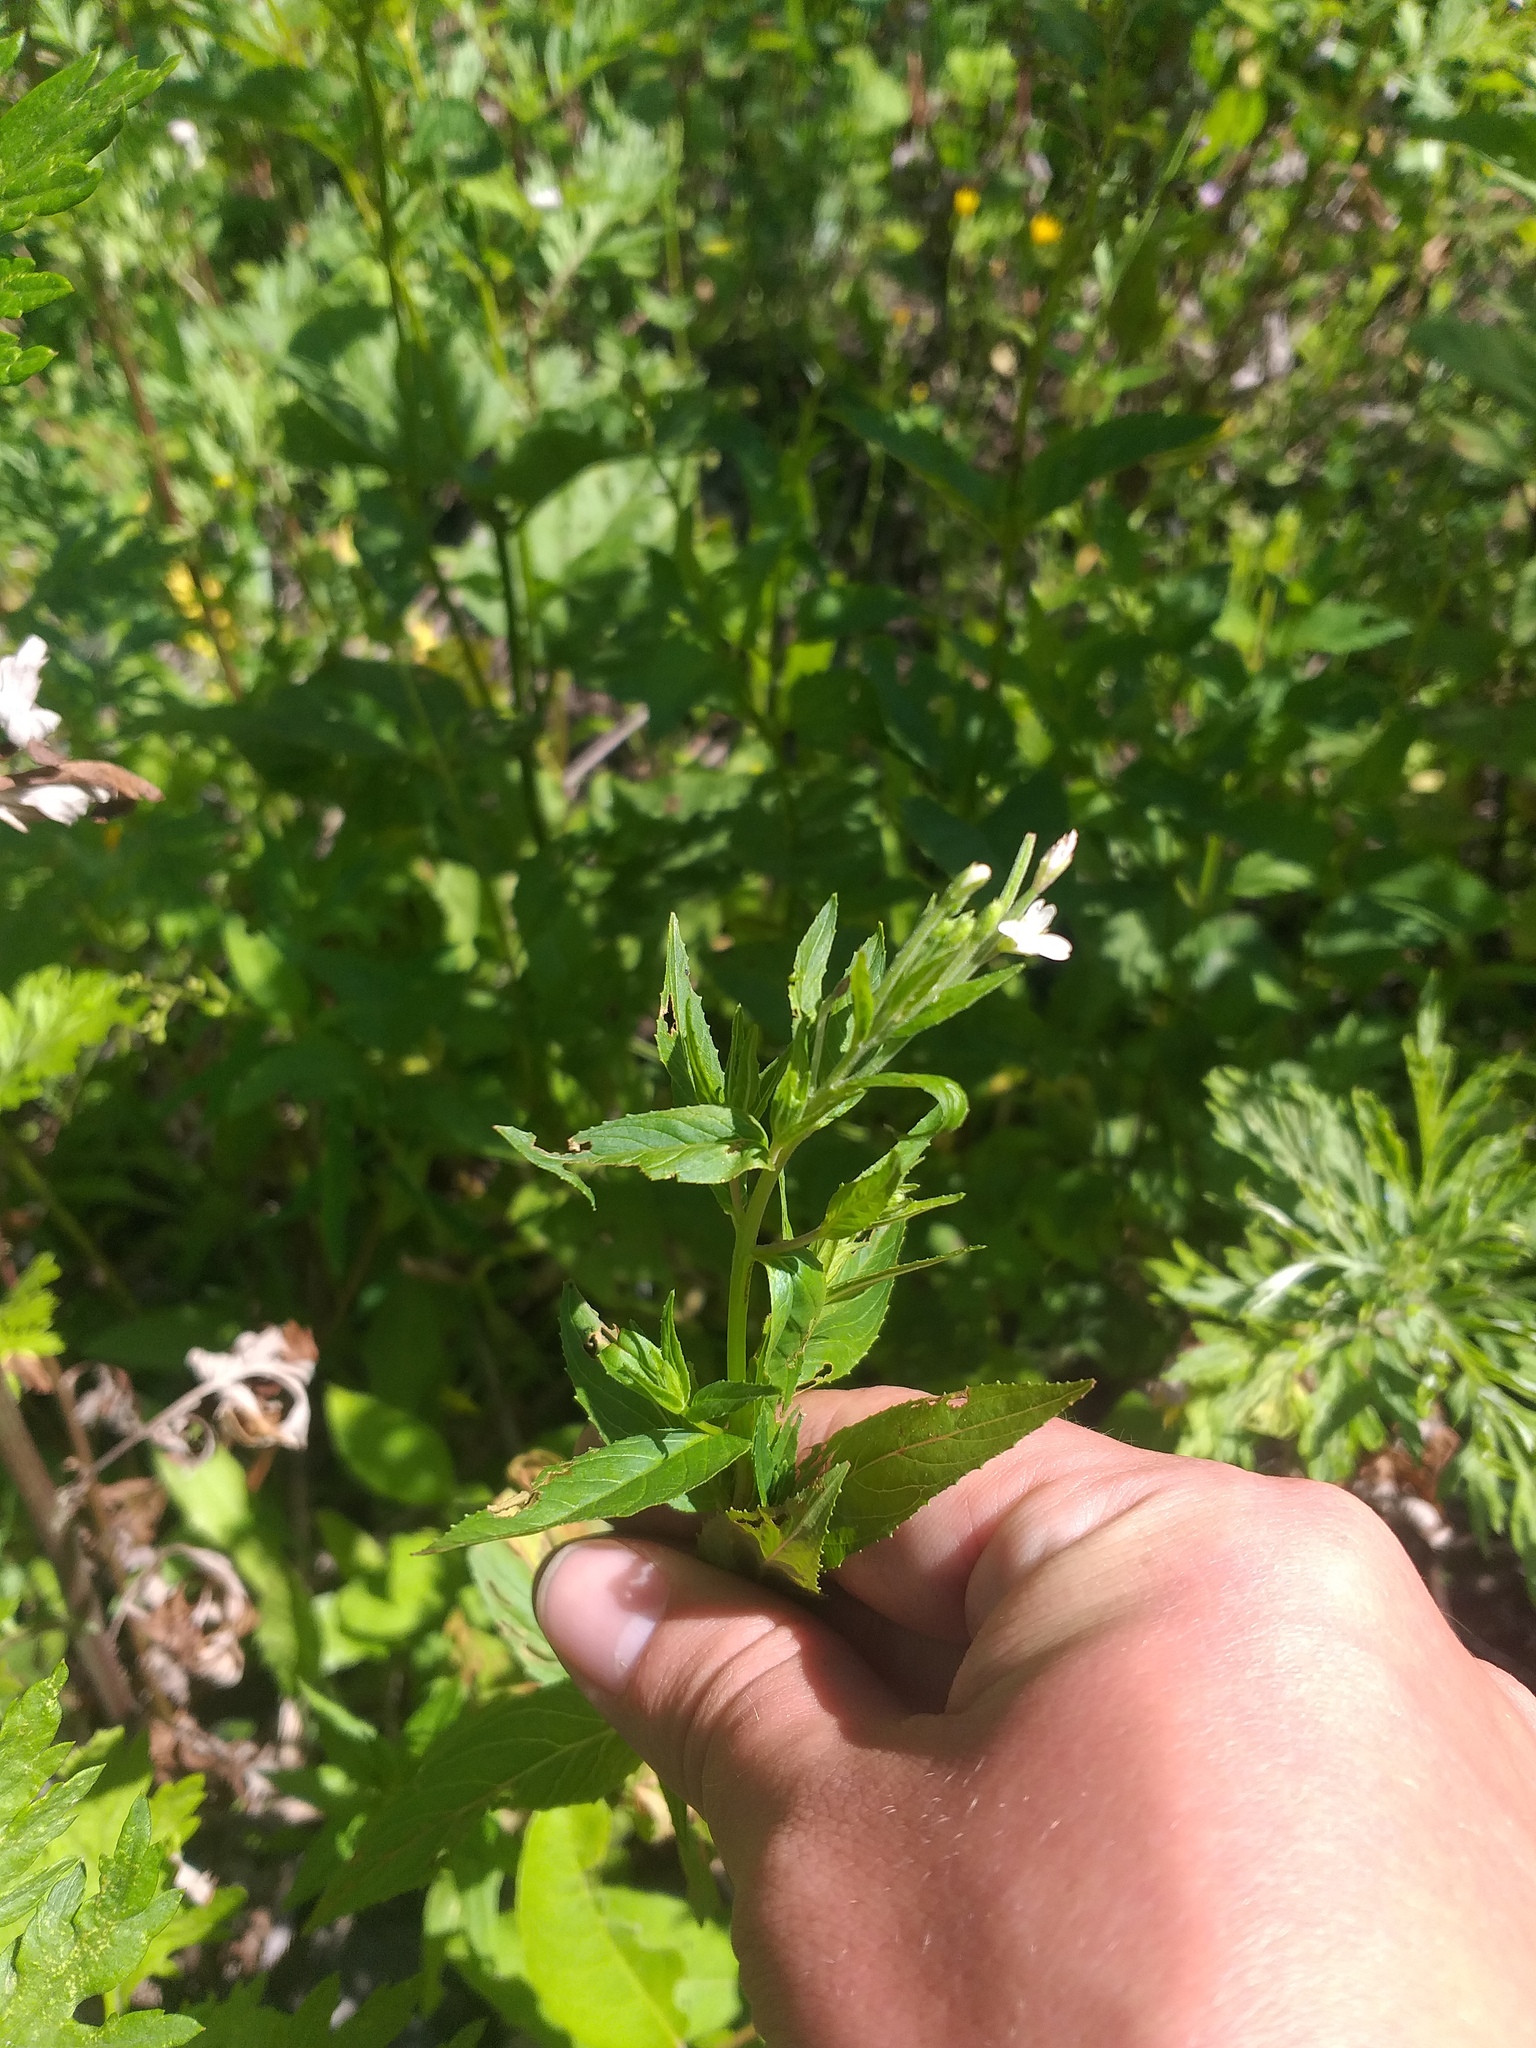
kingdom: Plantae
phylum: Tracheophyta
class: Magnoliopsida
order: Myrtales
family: Onagraceae
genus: Epilobium
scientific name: Epilobium pseudorubescens
